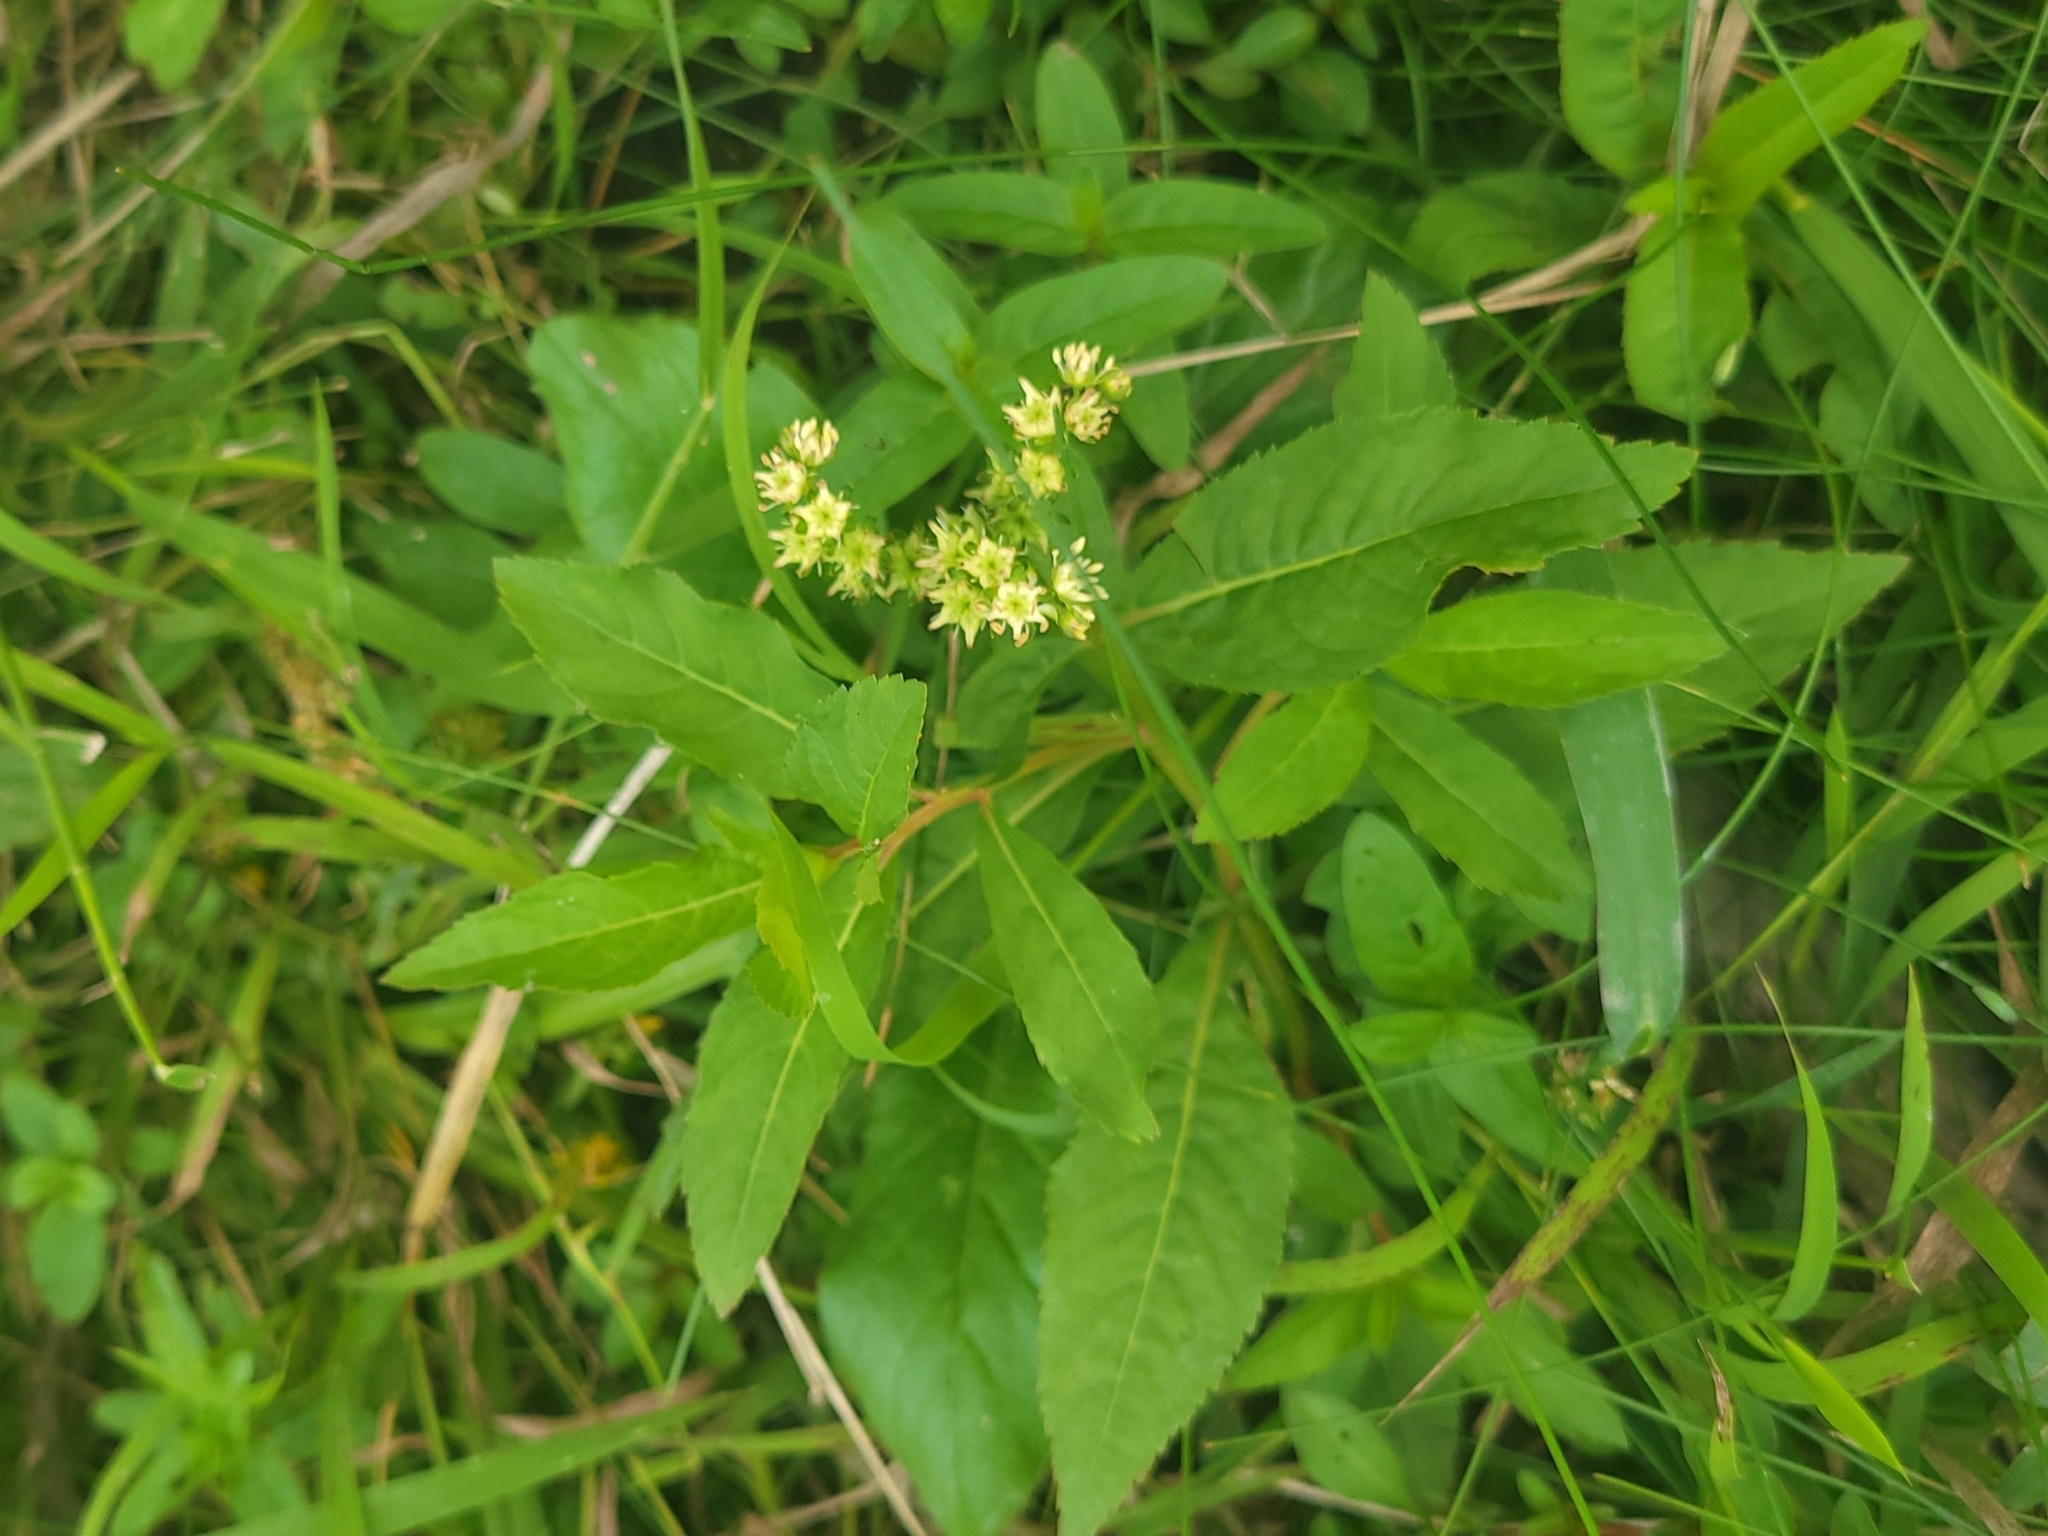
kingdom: Plantae
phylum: Tracheophyta
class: Magnoliopsida
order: Saxifragales
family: Penthoraceae
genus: Penthorum
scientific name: Penthorum sedoides
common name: Ditch stonecrop
